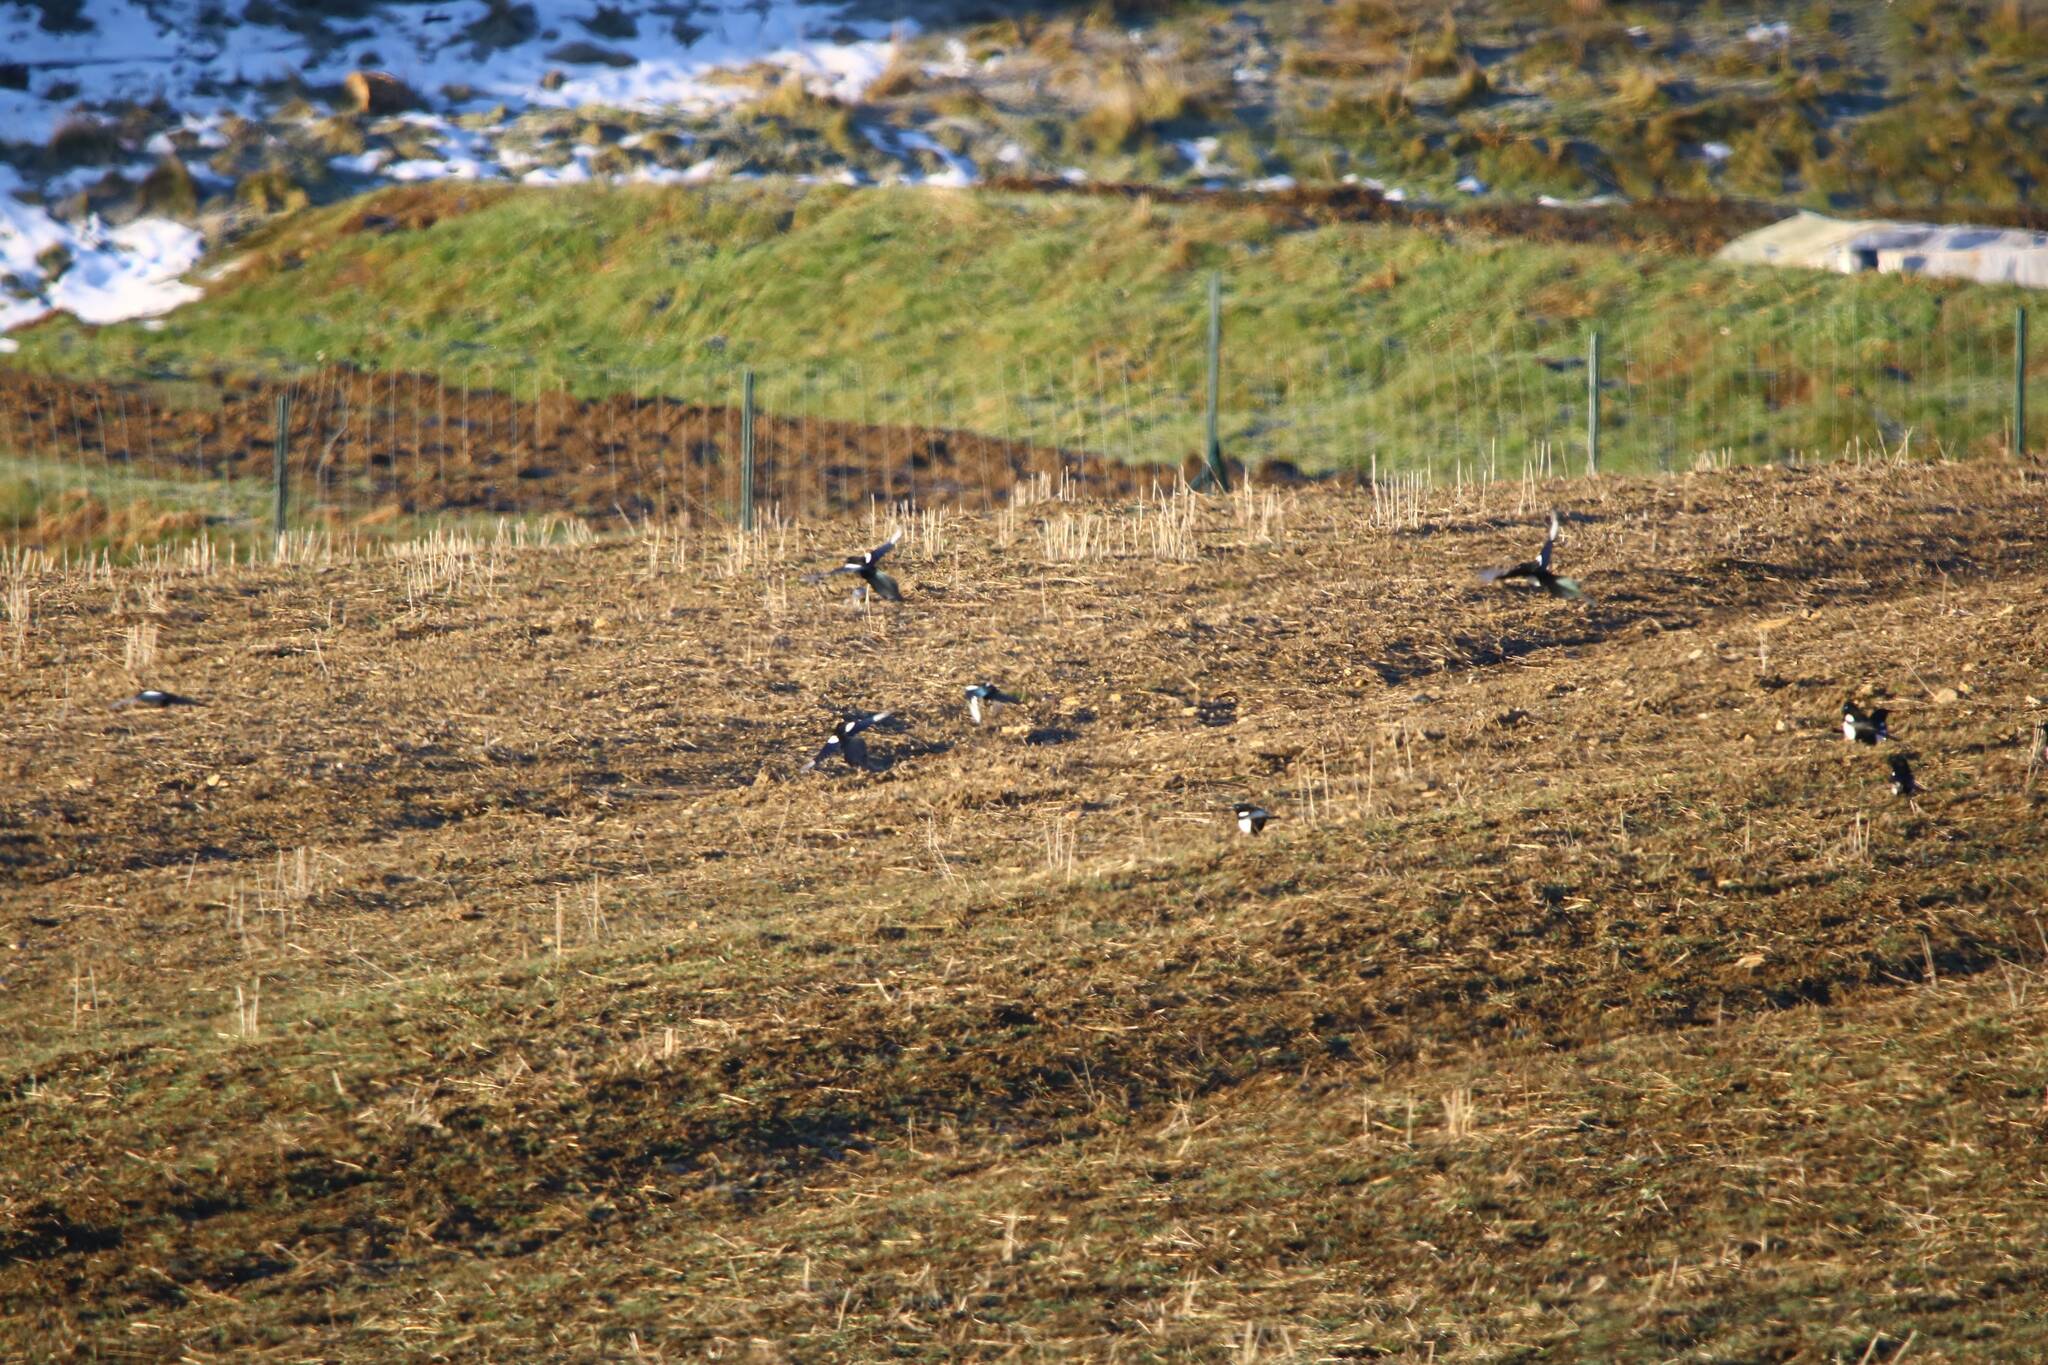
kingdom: Animalia
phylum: Chordata
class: Aves
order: Passeriformes
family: Corvidae
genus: Pica
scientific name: Pica mauritanica
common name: Maghreb magpie
